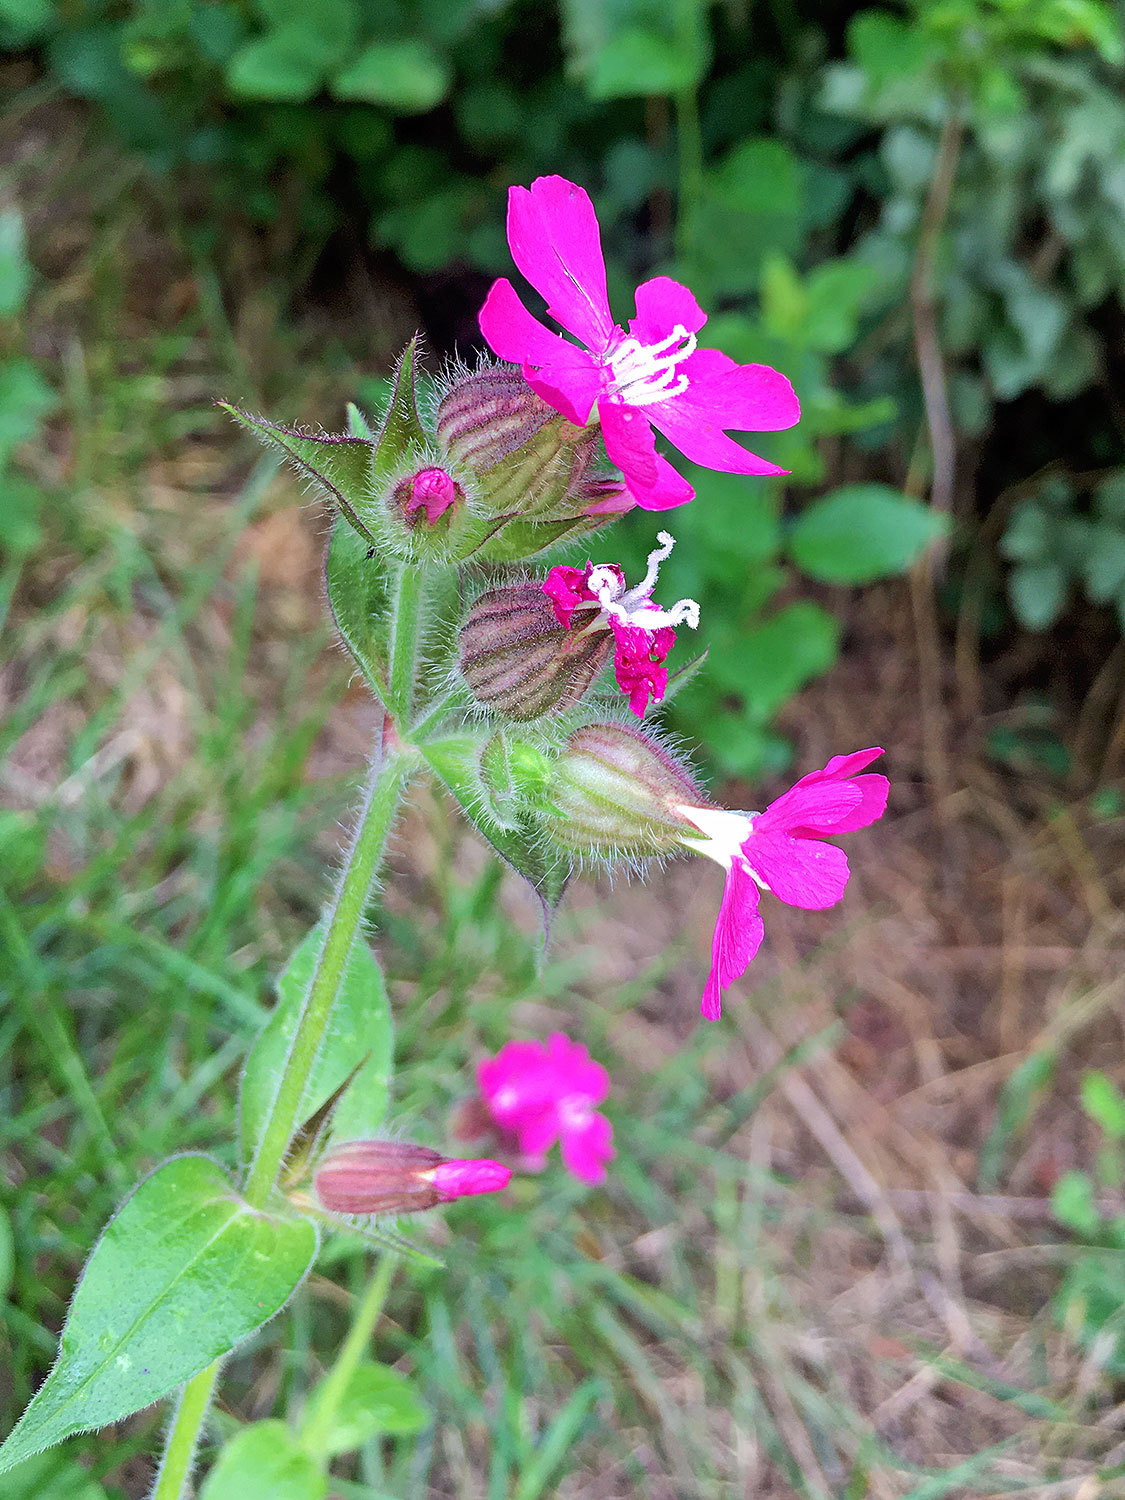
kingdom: Plantae
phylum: Tracheophyta
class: Magnoliopsida
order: Caryophyllales
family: Caryophyllaceae
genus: Silene
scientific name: Silene dioica
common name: Red campion
